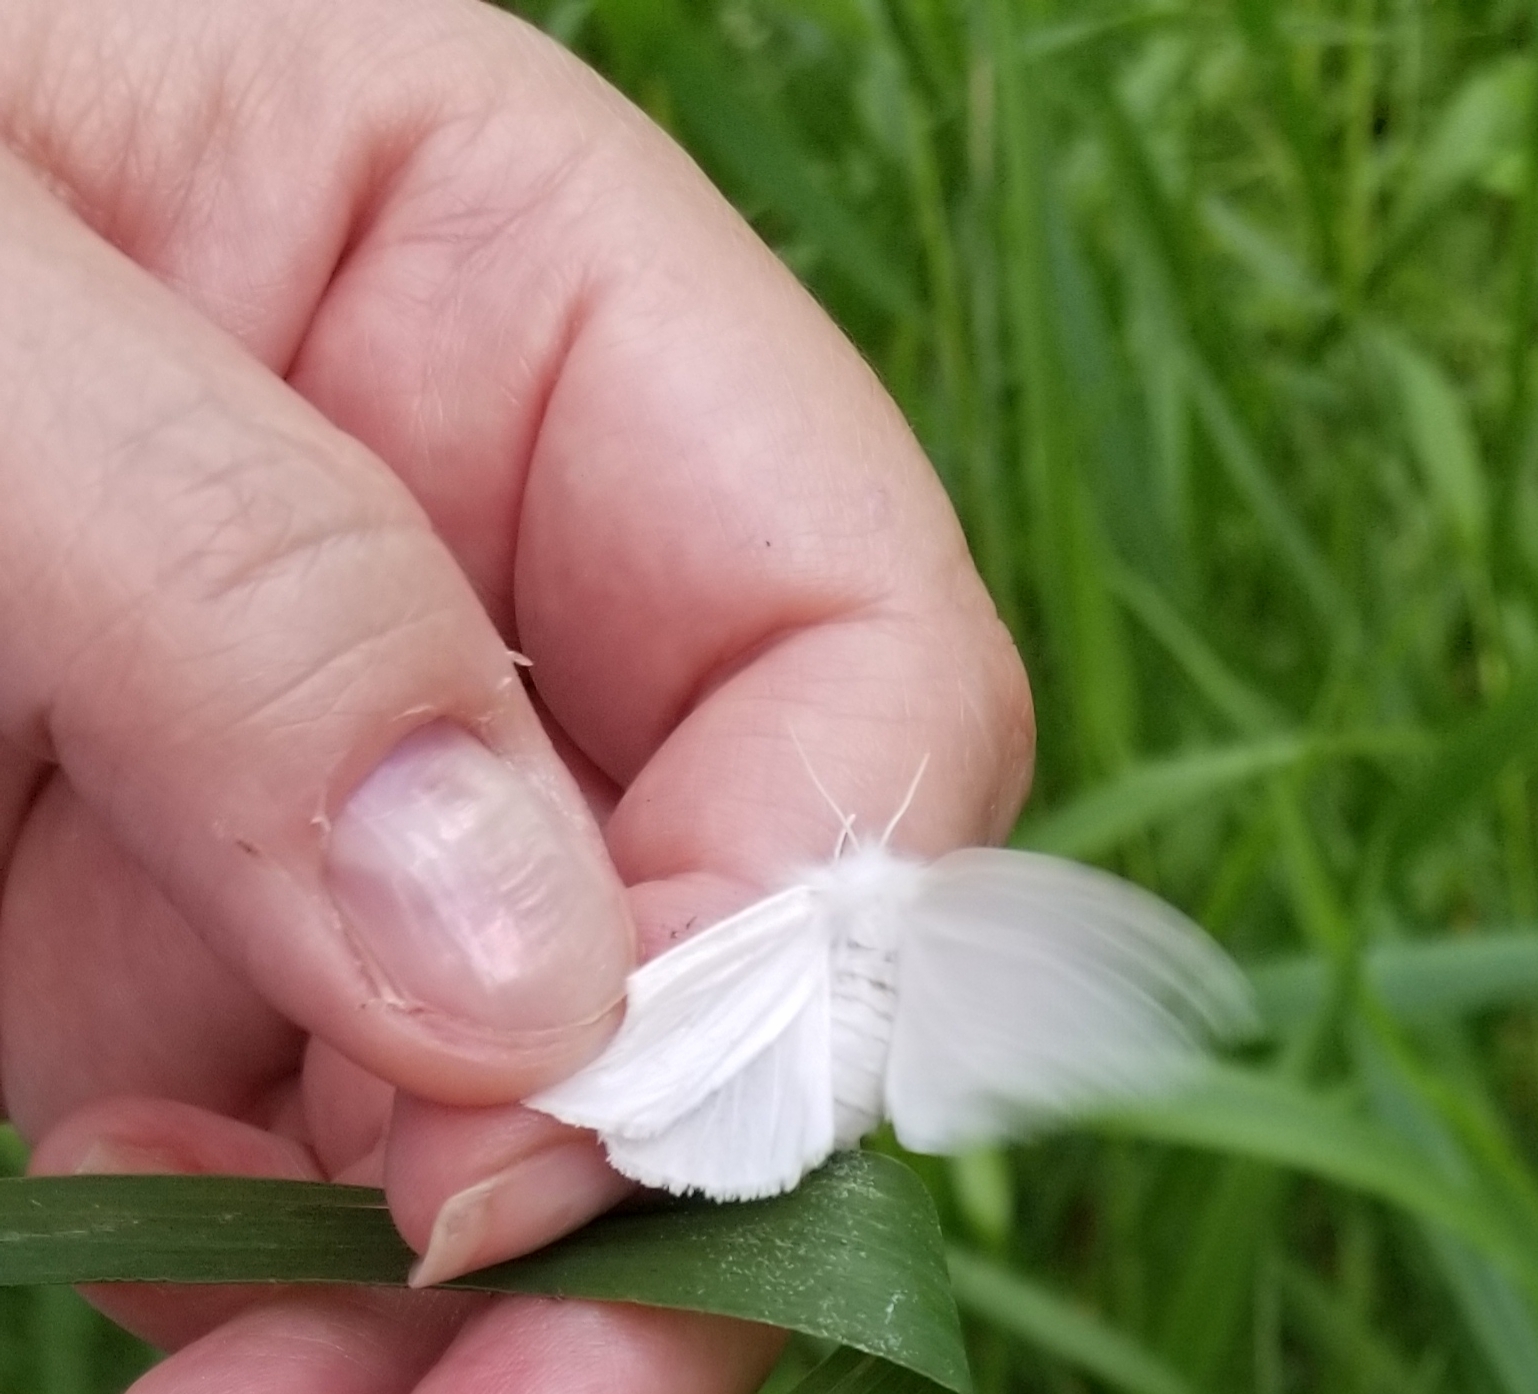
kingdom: Animalia
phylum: Arthropoda
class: Insecta
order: Lepidoptera
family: Erebidae
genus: Spilosoma
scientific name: Spilosoma latipennis
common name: Pink-legged tiger moth
